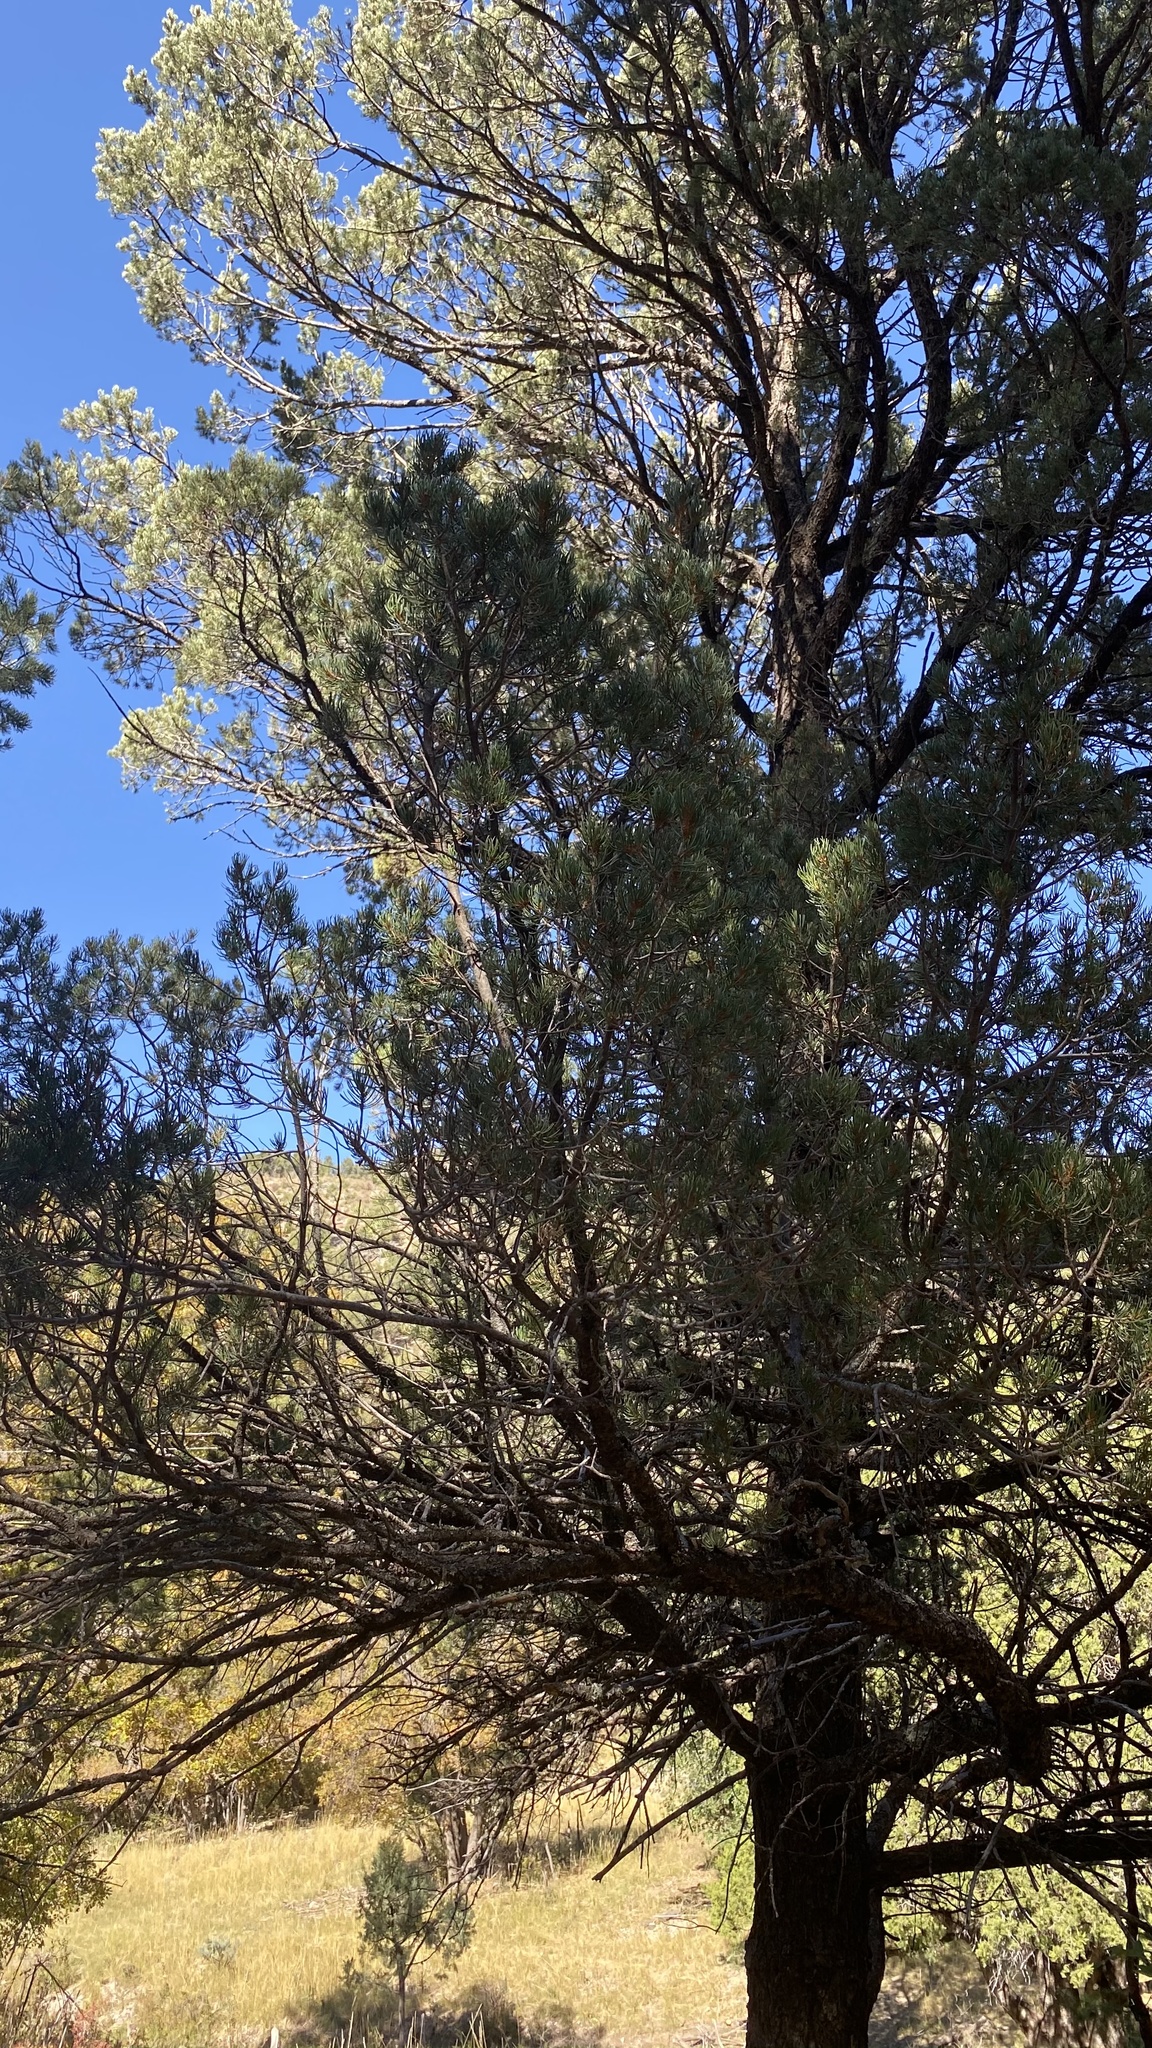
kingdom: Plantae
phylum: Tracheophyta
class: Pinopsida
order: Pinales
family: Pinaceae
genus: Pinus
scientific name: Pinus edulis
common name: Colorado pinyon
